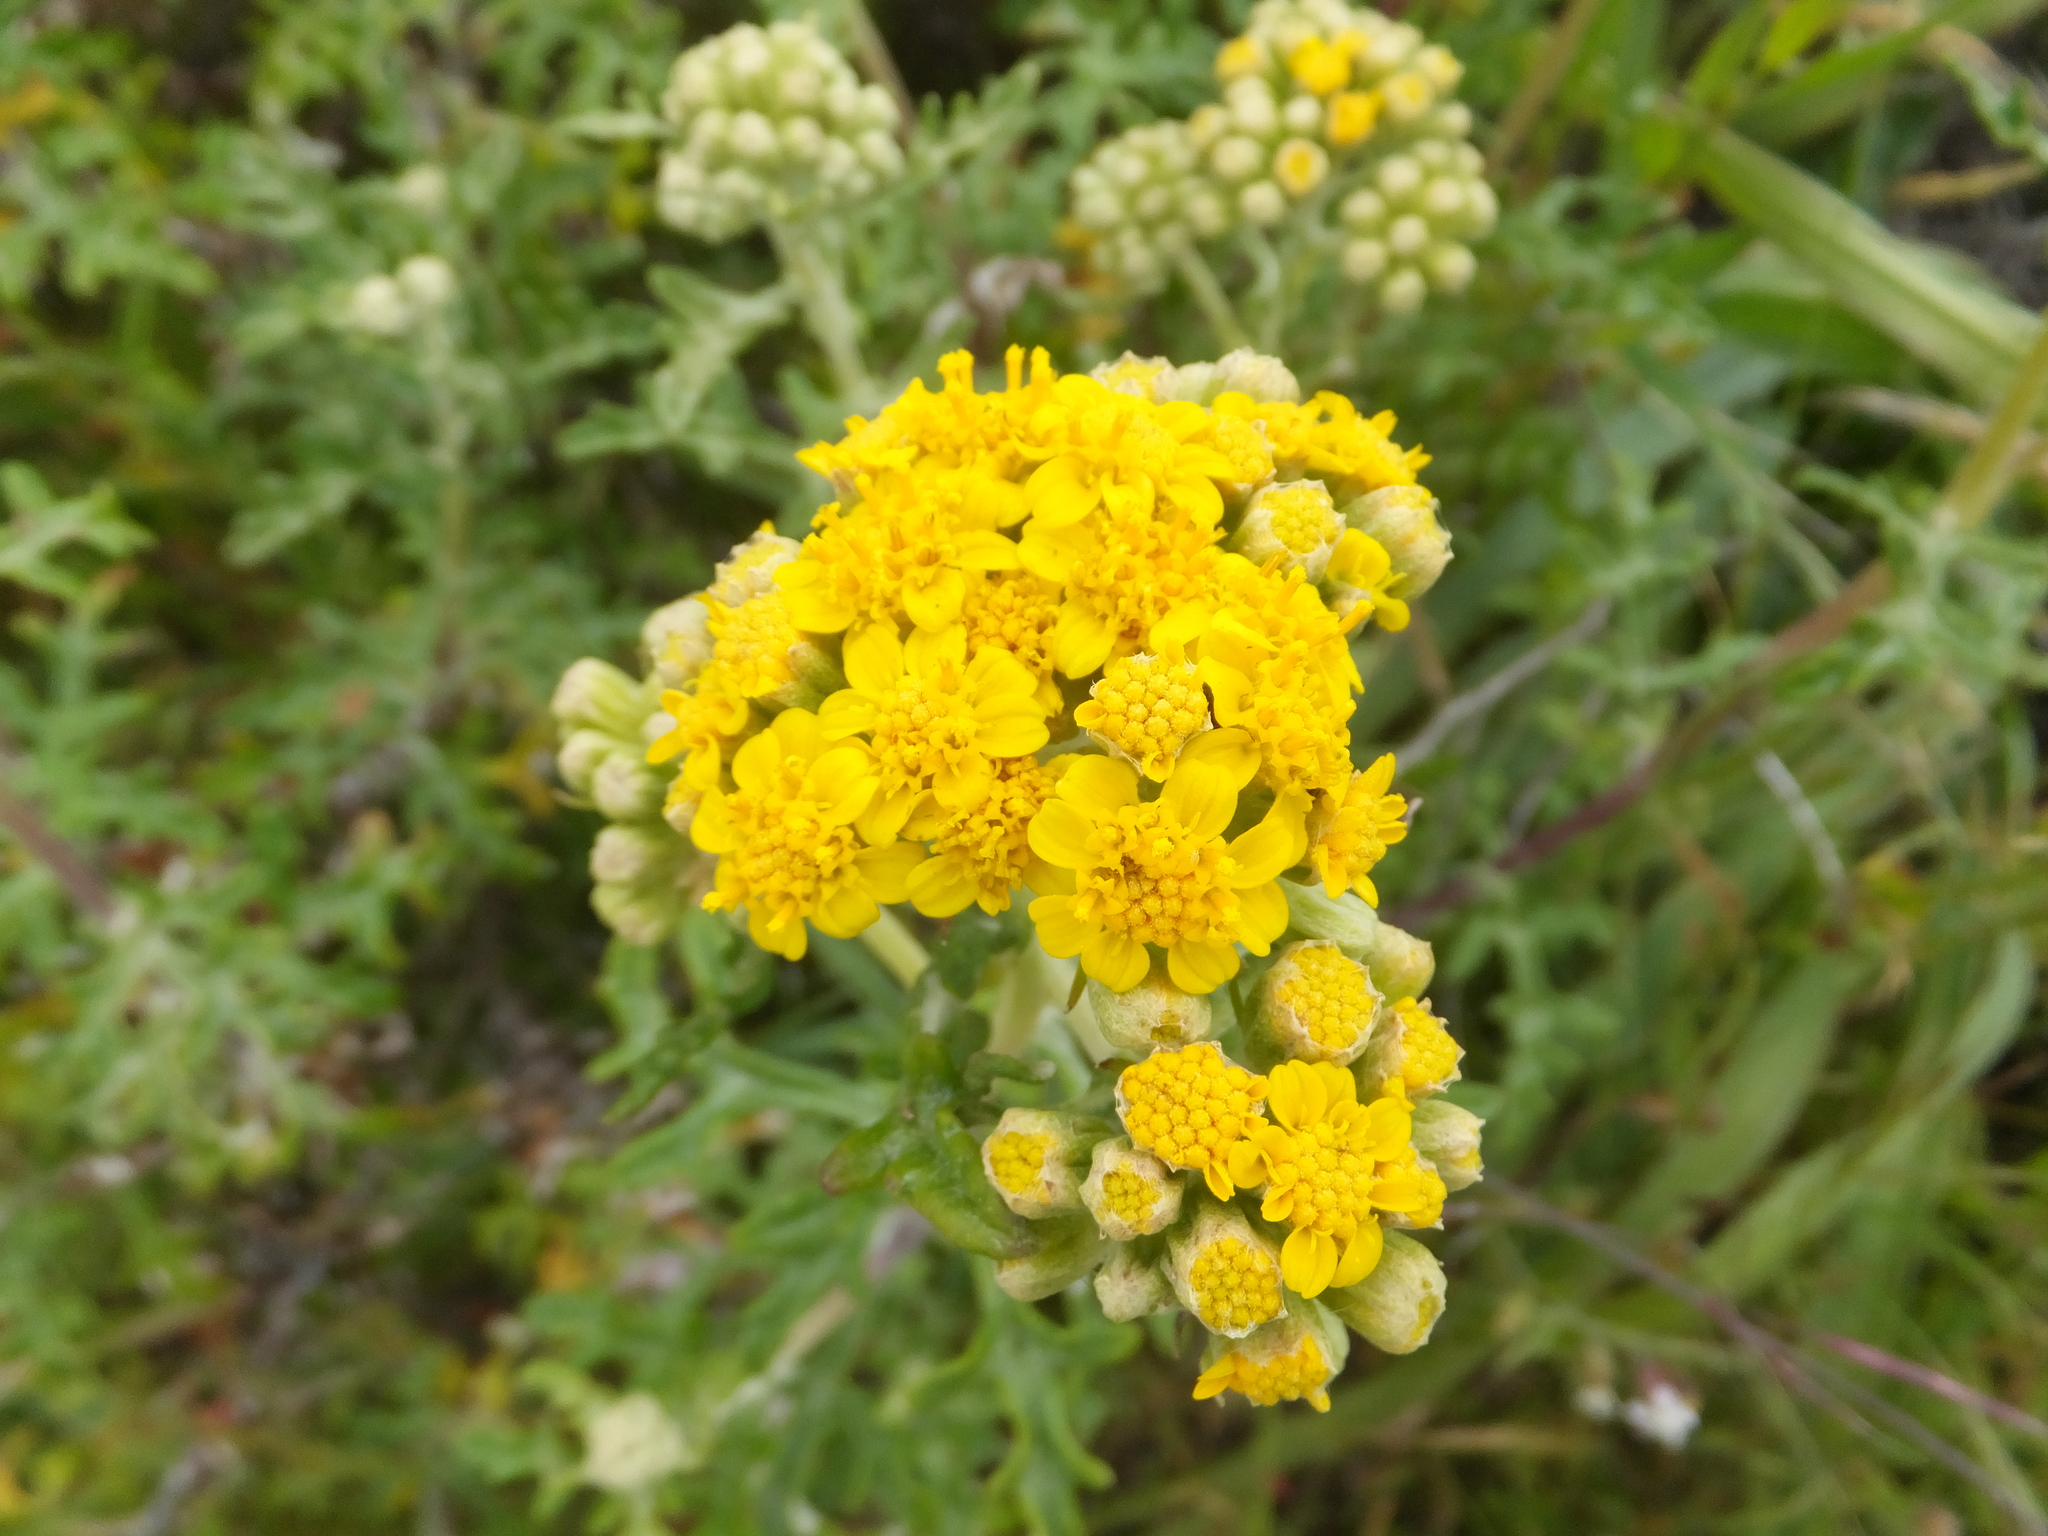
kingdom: Plantae
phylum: Tracheophyta
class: Magnoliopsida
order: Asterales
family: Asteraceae
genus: Eriophyllum
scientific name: Eriophyllum staechadifolium
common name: Lizardtail
